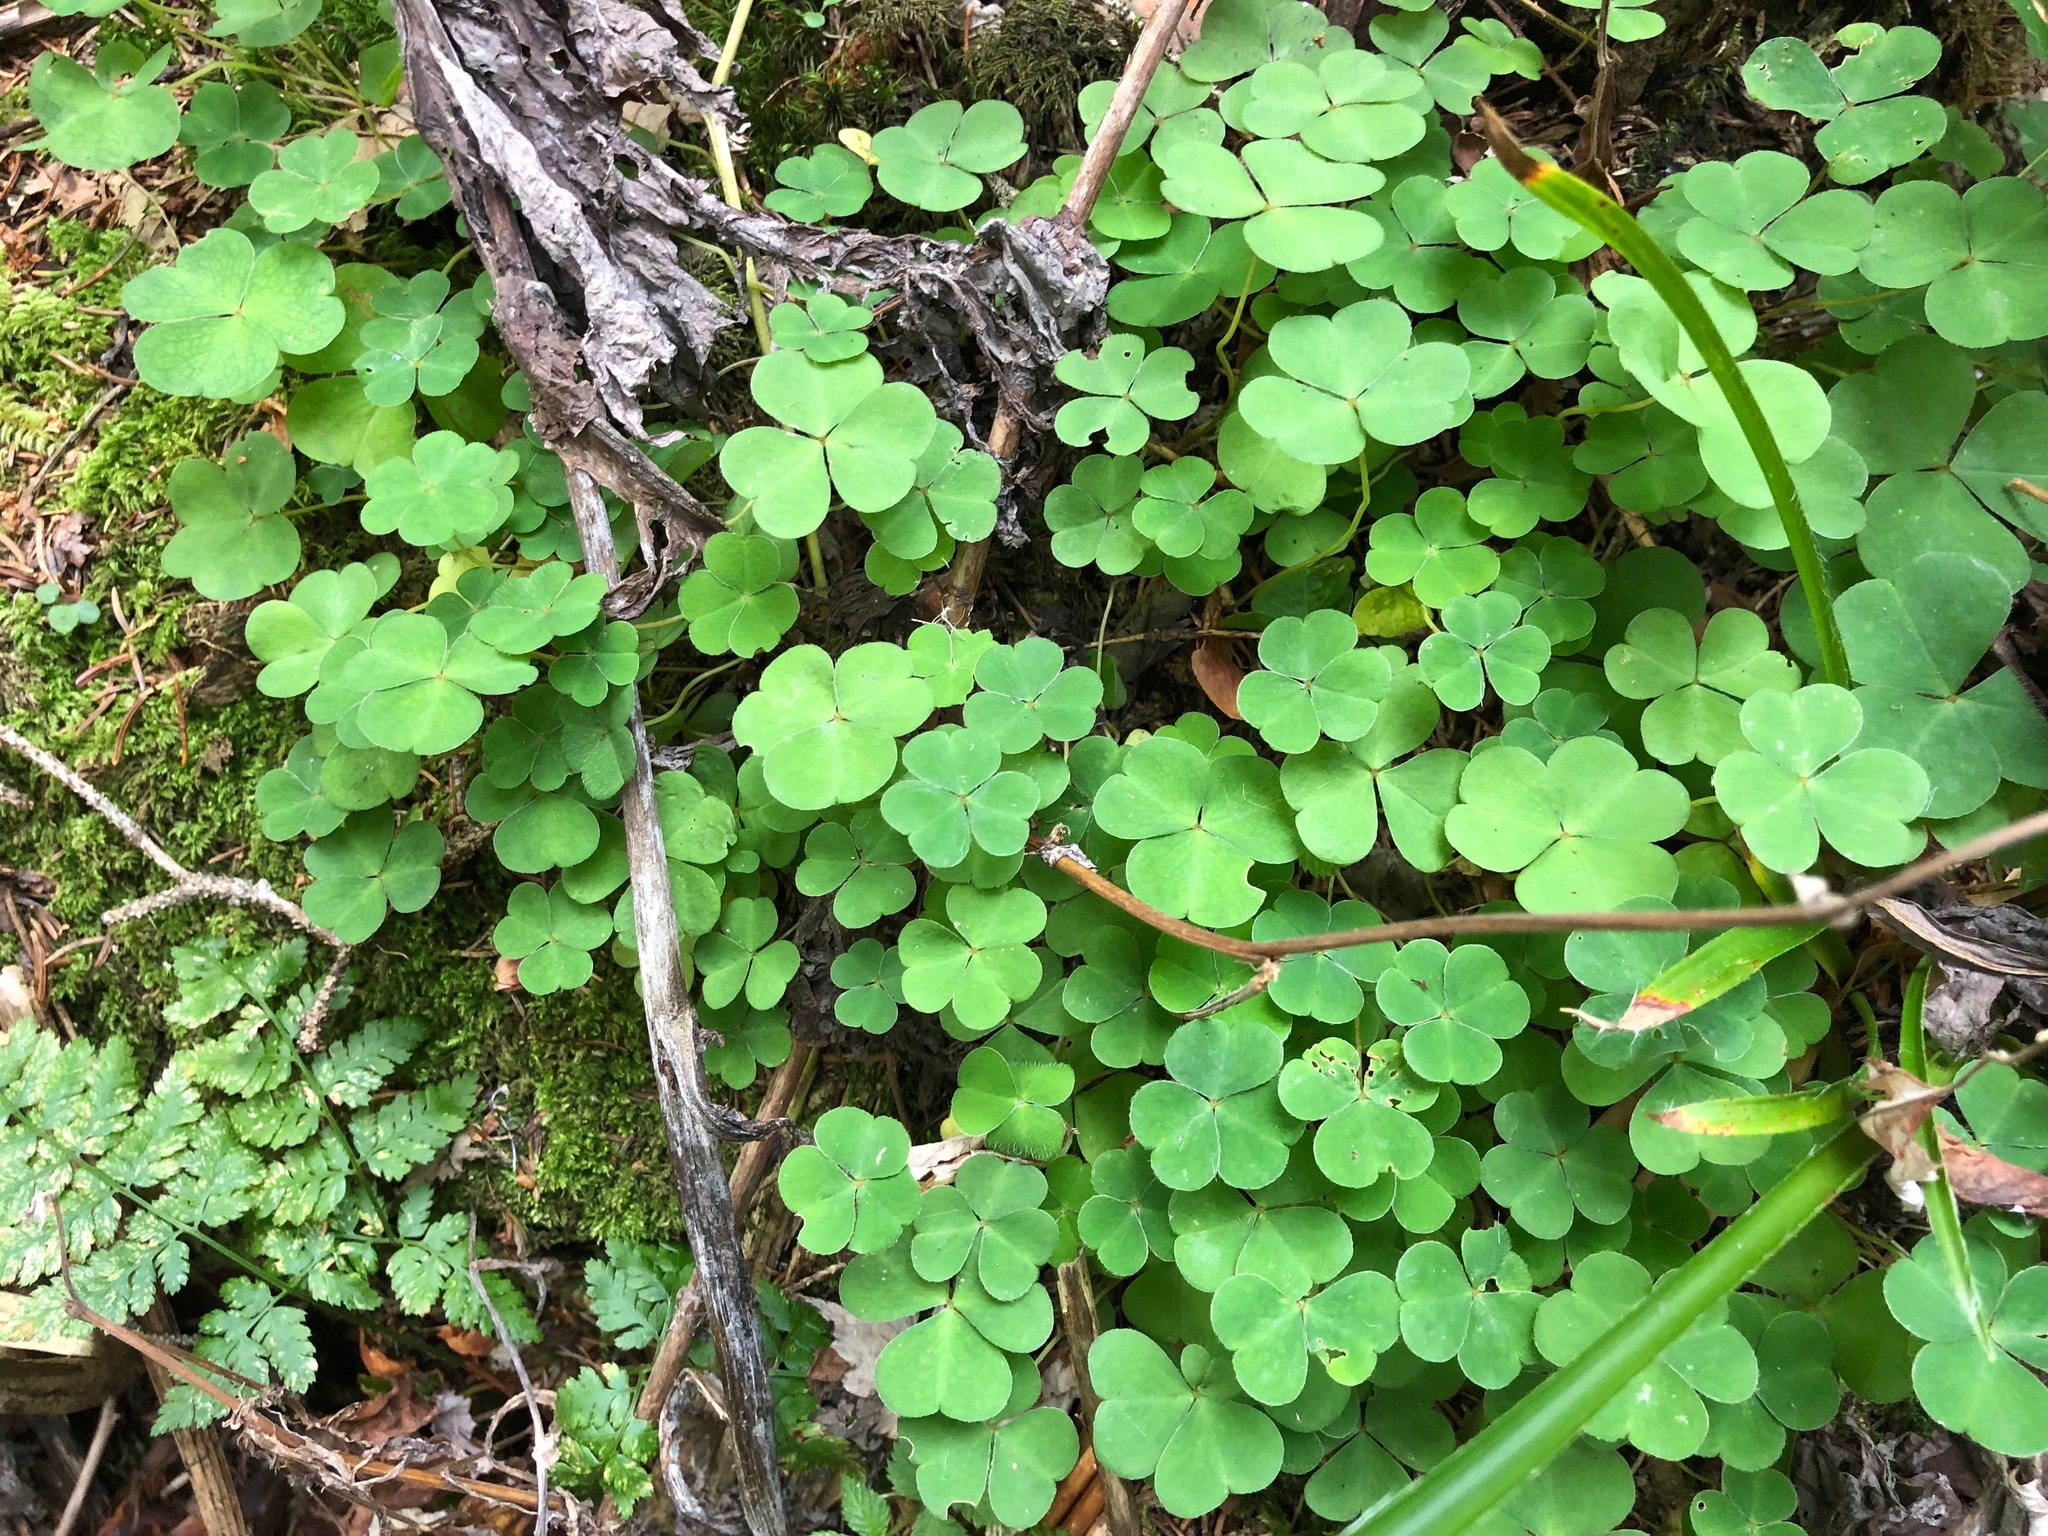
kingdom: Plantae
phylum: Tracheophyta
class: Magnoliopsida
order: Oxalidales
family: Oxalidaceae
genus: Oxalis
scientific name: Oxalis acetosella
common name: Wood-sorrel
